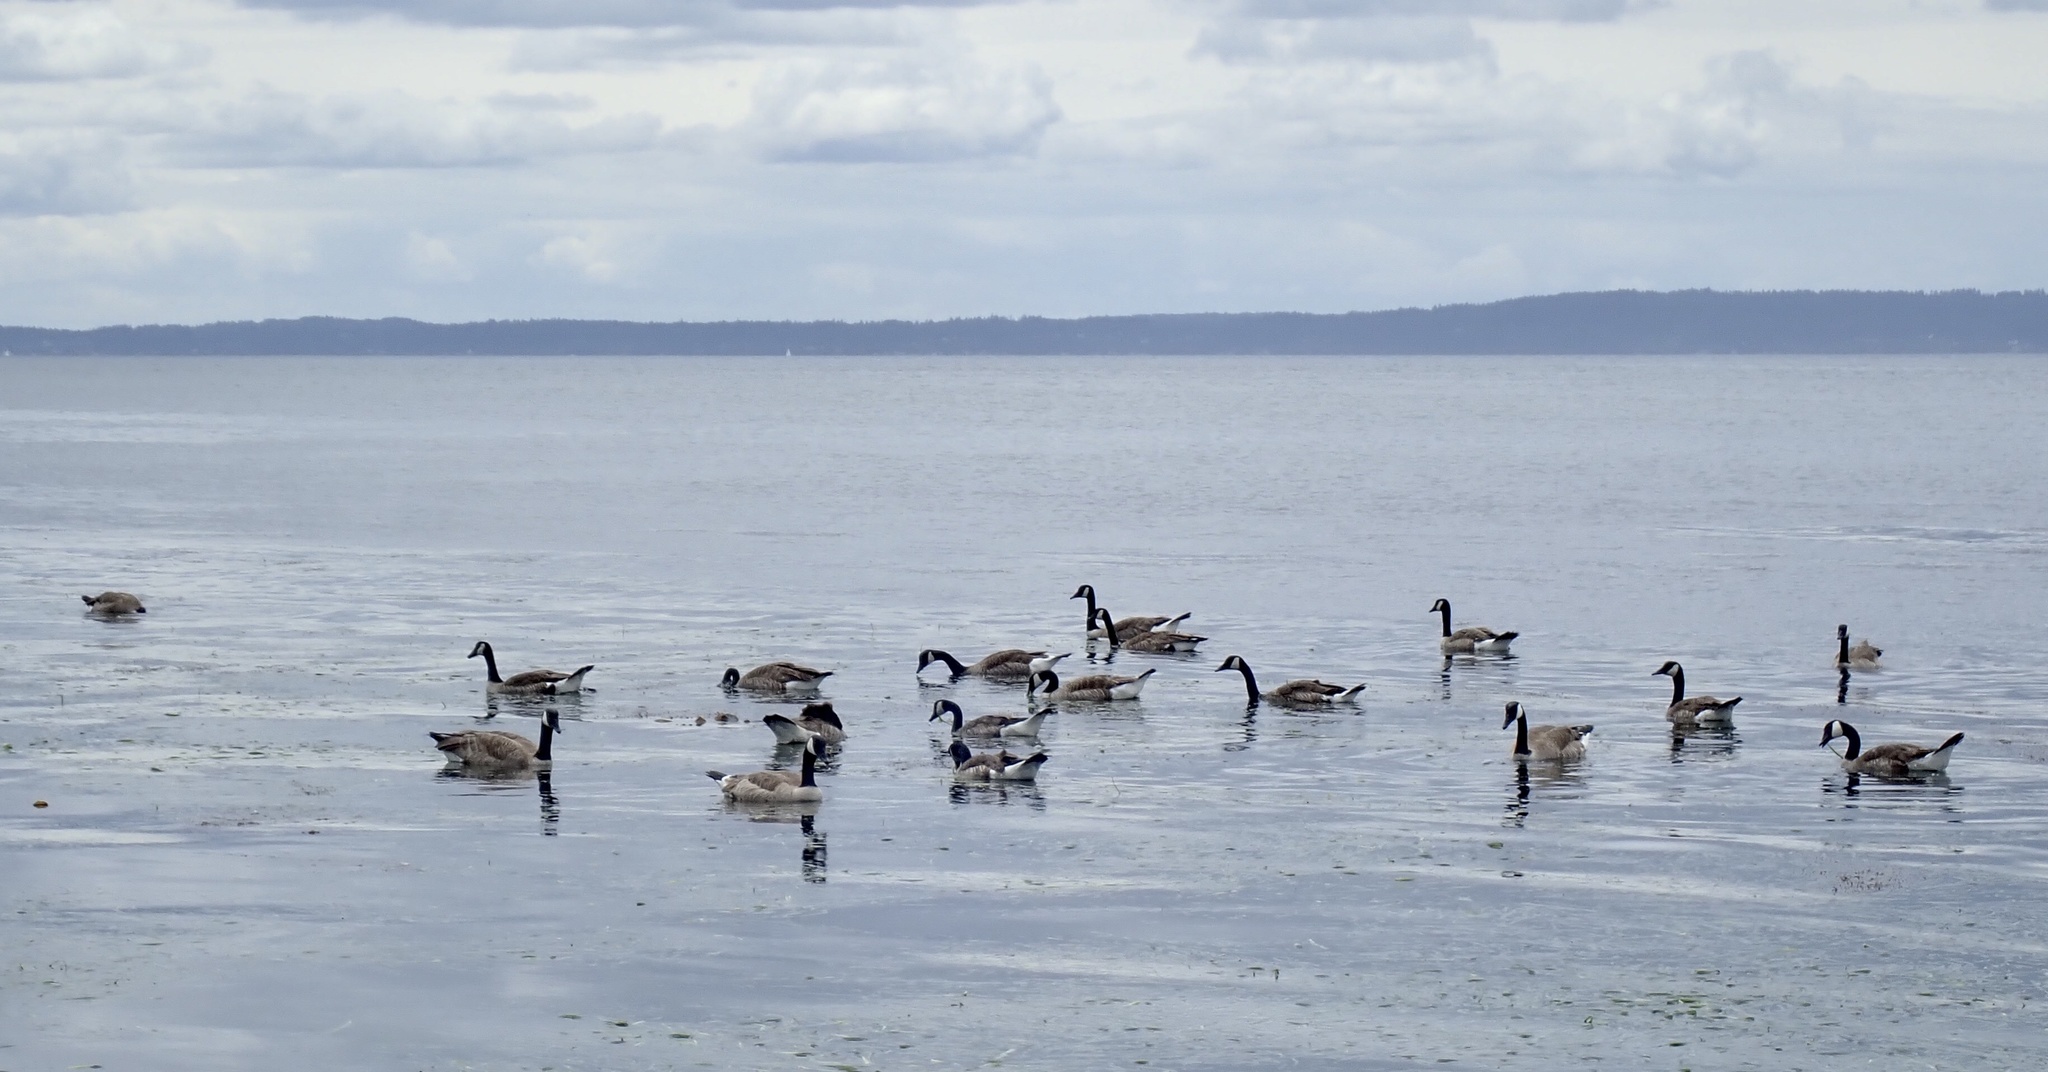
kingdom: Animalia
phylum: Chordata
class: Aves
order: Anseriformes
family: Anatidae
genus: Branta
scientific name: Branta canadensis
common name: Canada goose
